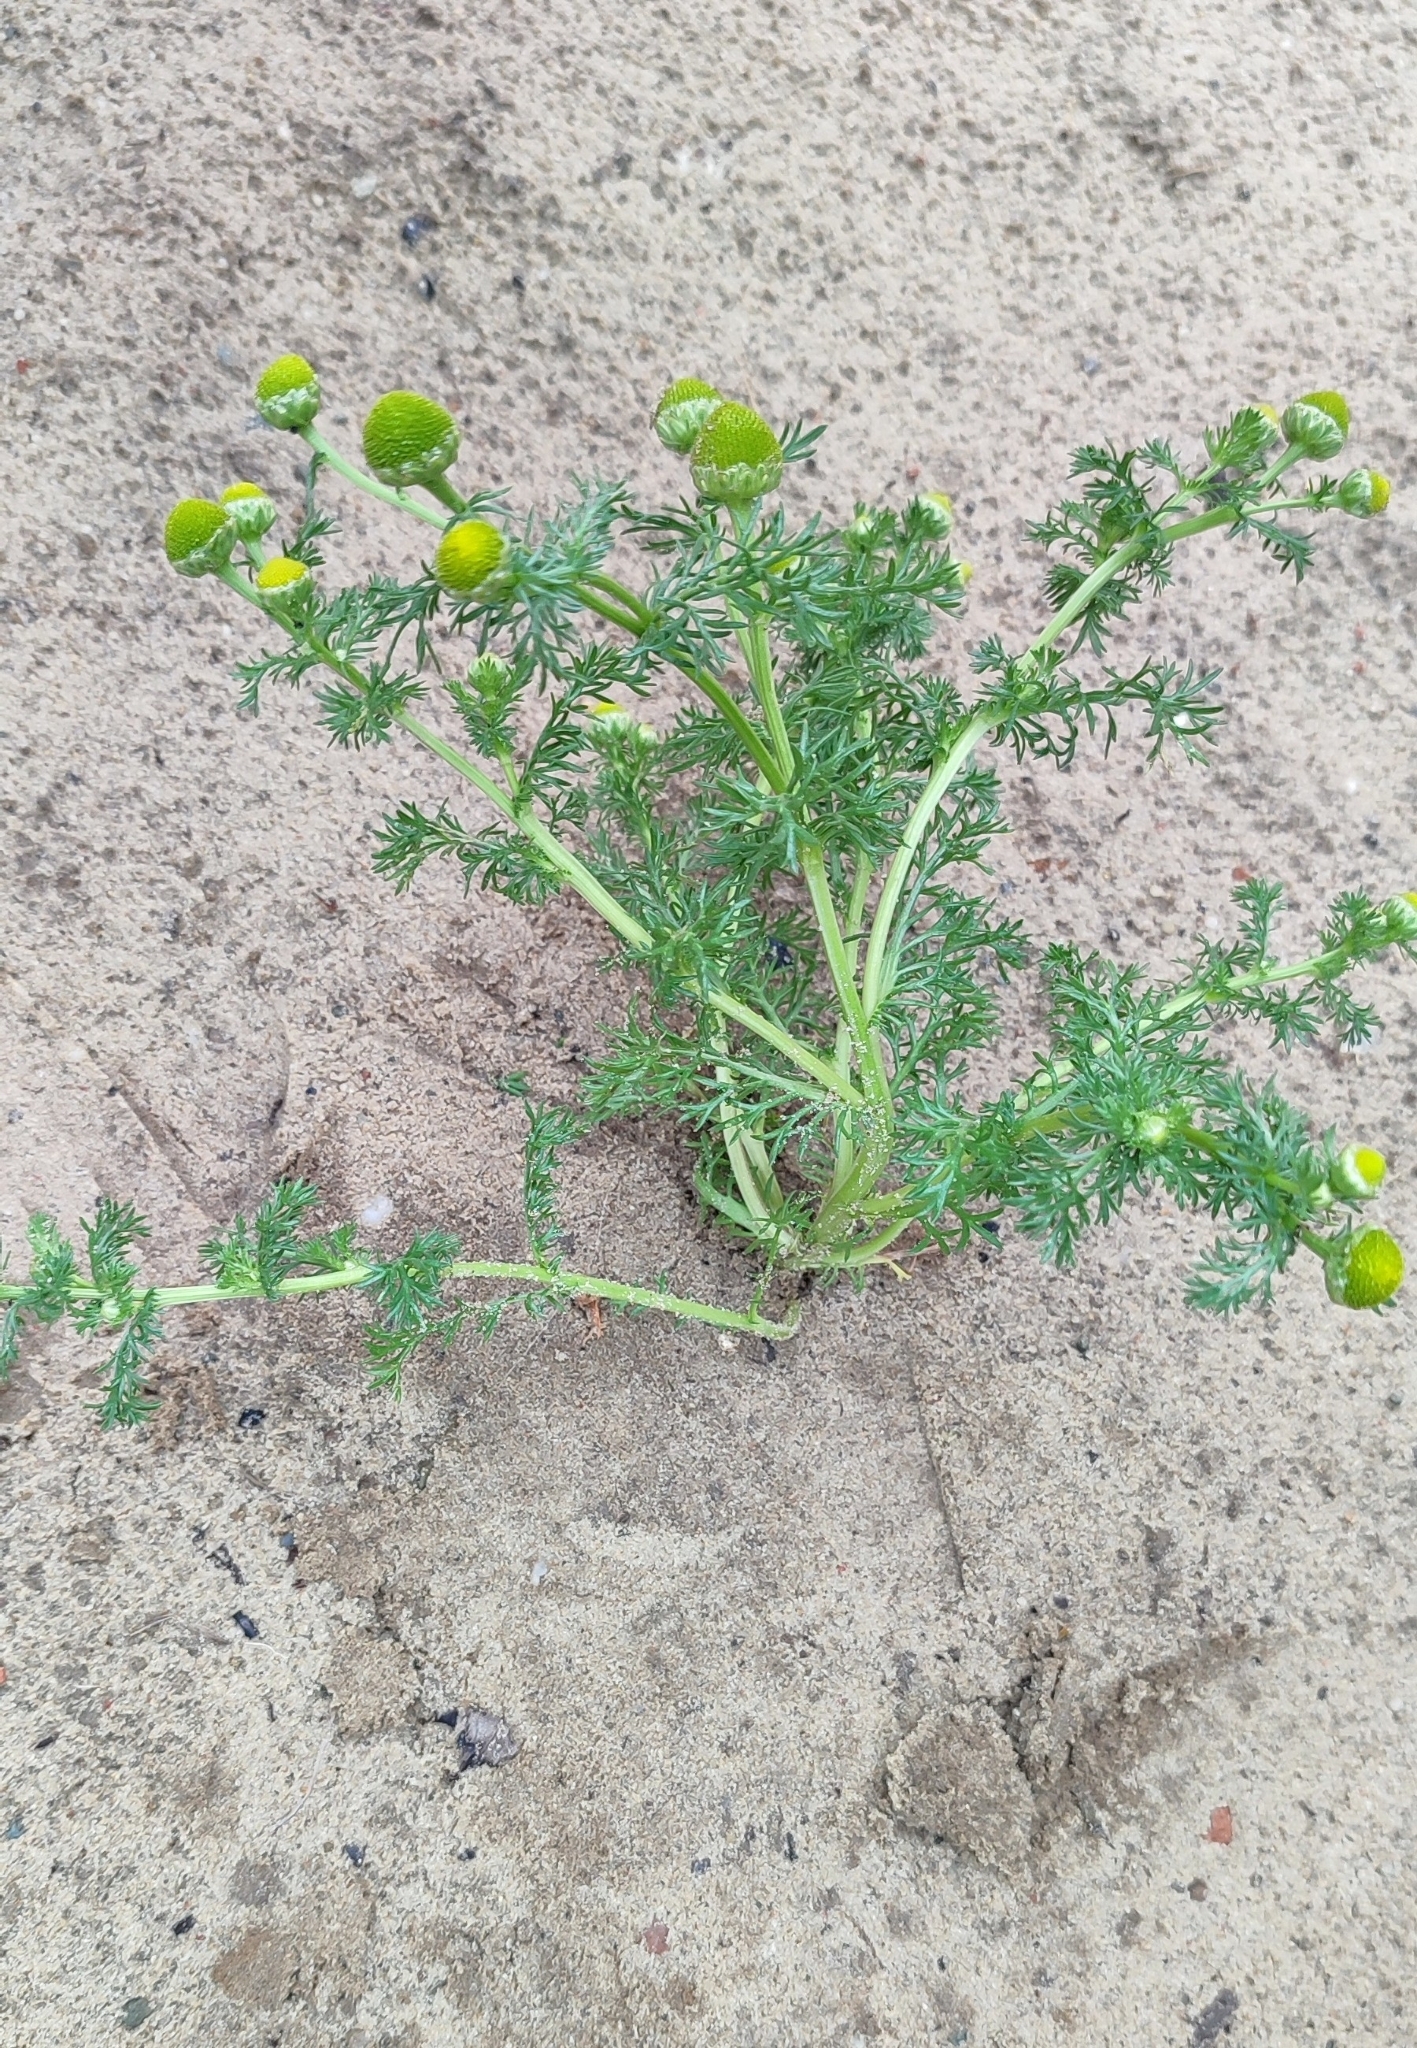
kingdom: Plantae
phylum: Tracheophyta
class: Magnoliopsida
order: Asterales
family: Asteraceae
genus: Matricaria
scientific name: Matricaria discoidea
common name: Disc mayweed
